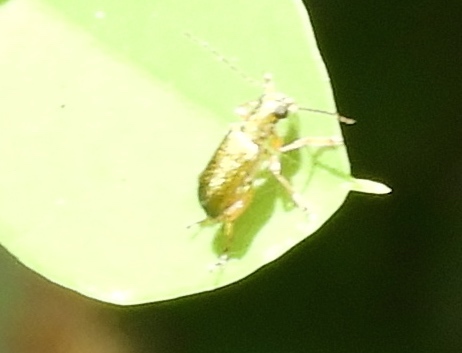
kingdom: Animalia
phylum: Arthropoda
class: Insecta
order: Coleoptera
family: Chrysomelidae
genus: Megascelis
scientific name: Megascelis
